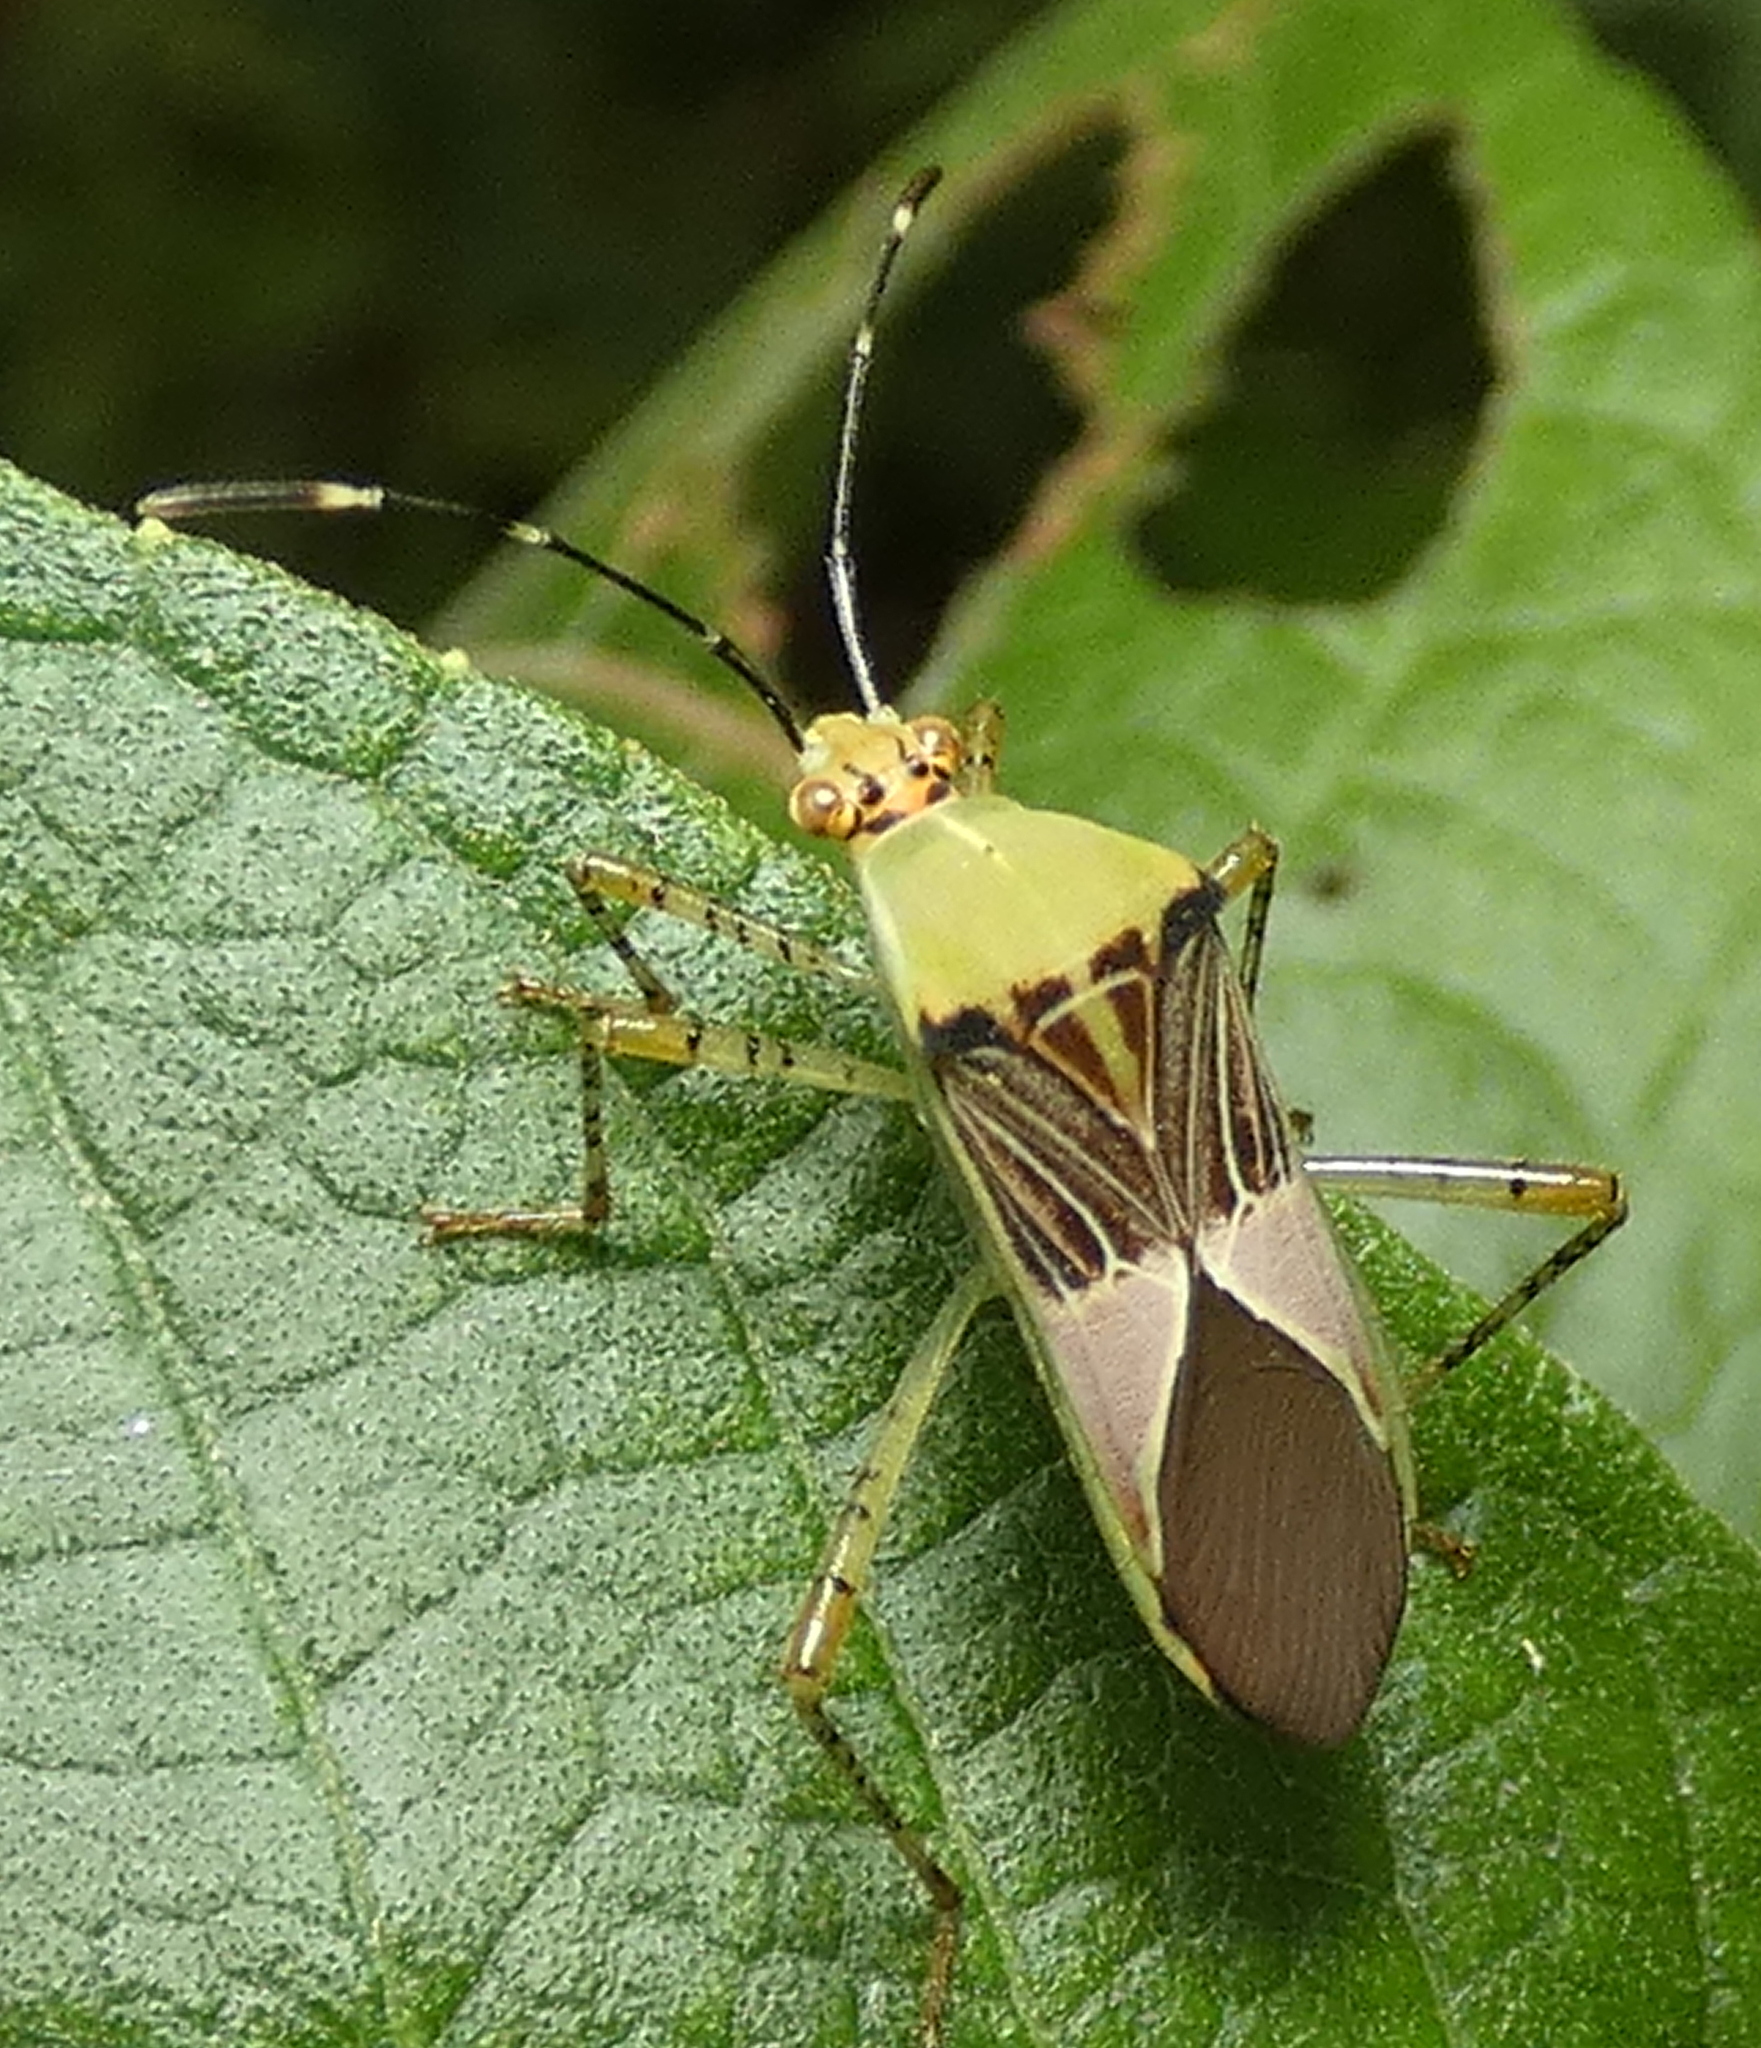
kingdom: Animalia
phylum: Arthropoda
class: Insecta
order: Hemiptera
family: Coreidae
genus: Hypselonotus
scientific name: Hypselonotus fulvus
